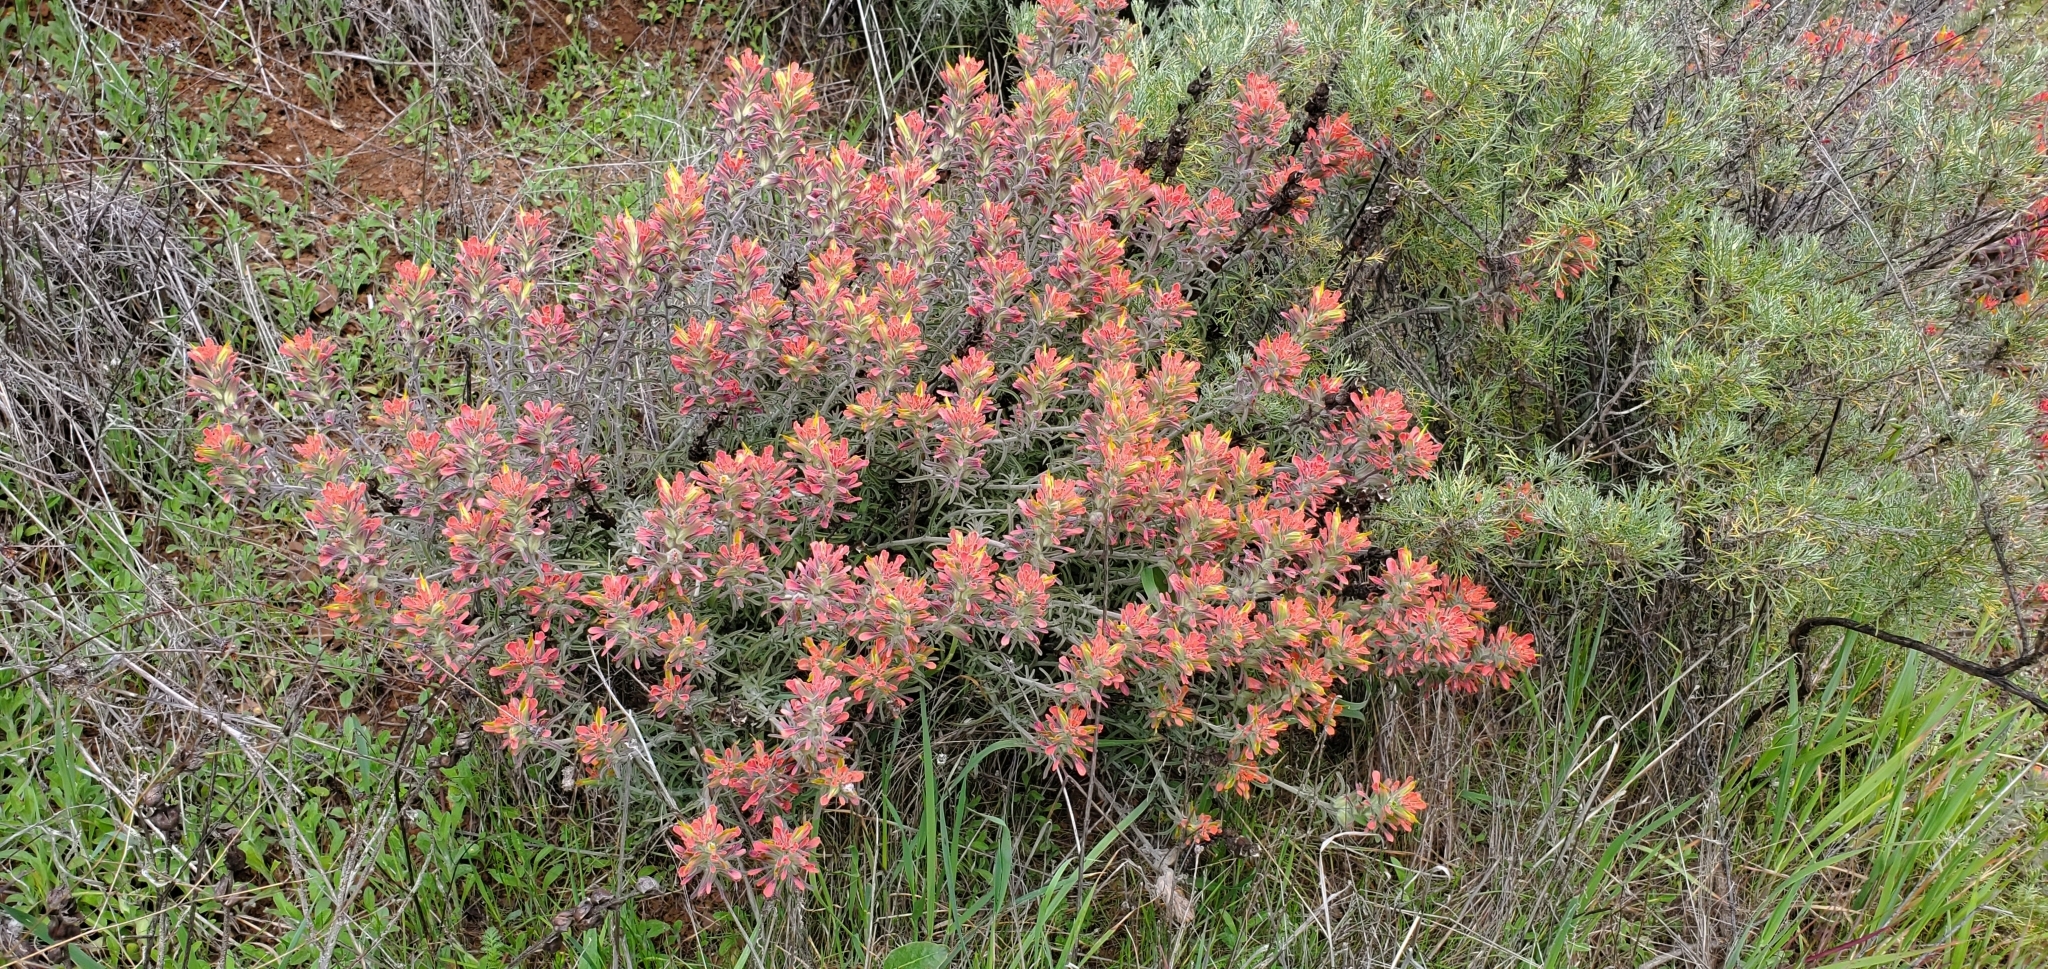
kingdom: Plantae
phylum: Tracheophyta
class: Magnoliopsida
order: Lamiales
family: Orobanchaceae
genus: Castilleja
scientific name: Castilleja foliolosa
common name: Woolly indian paintbrush
